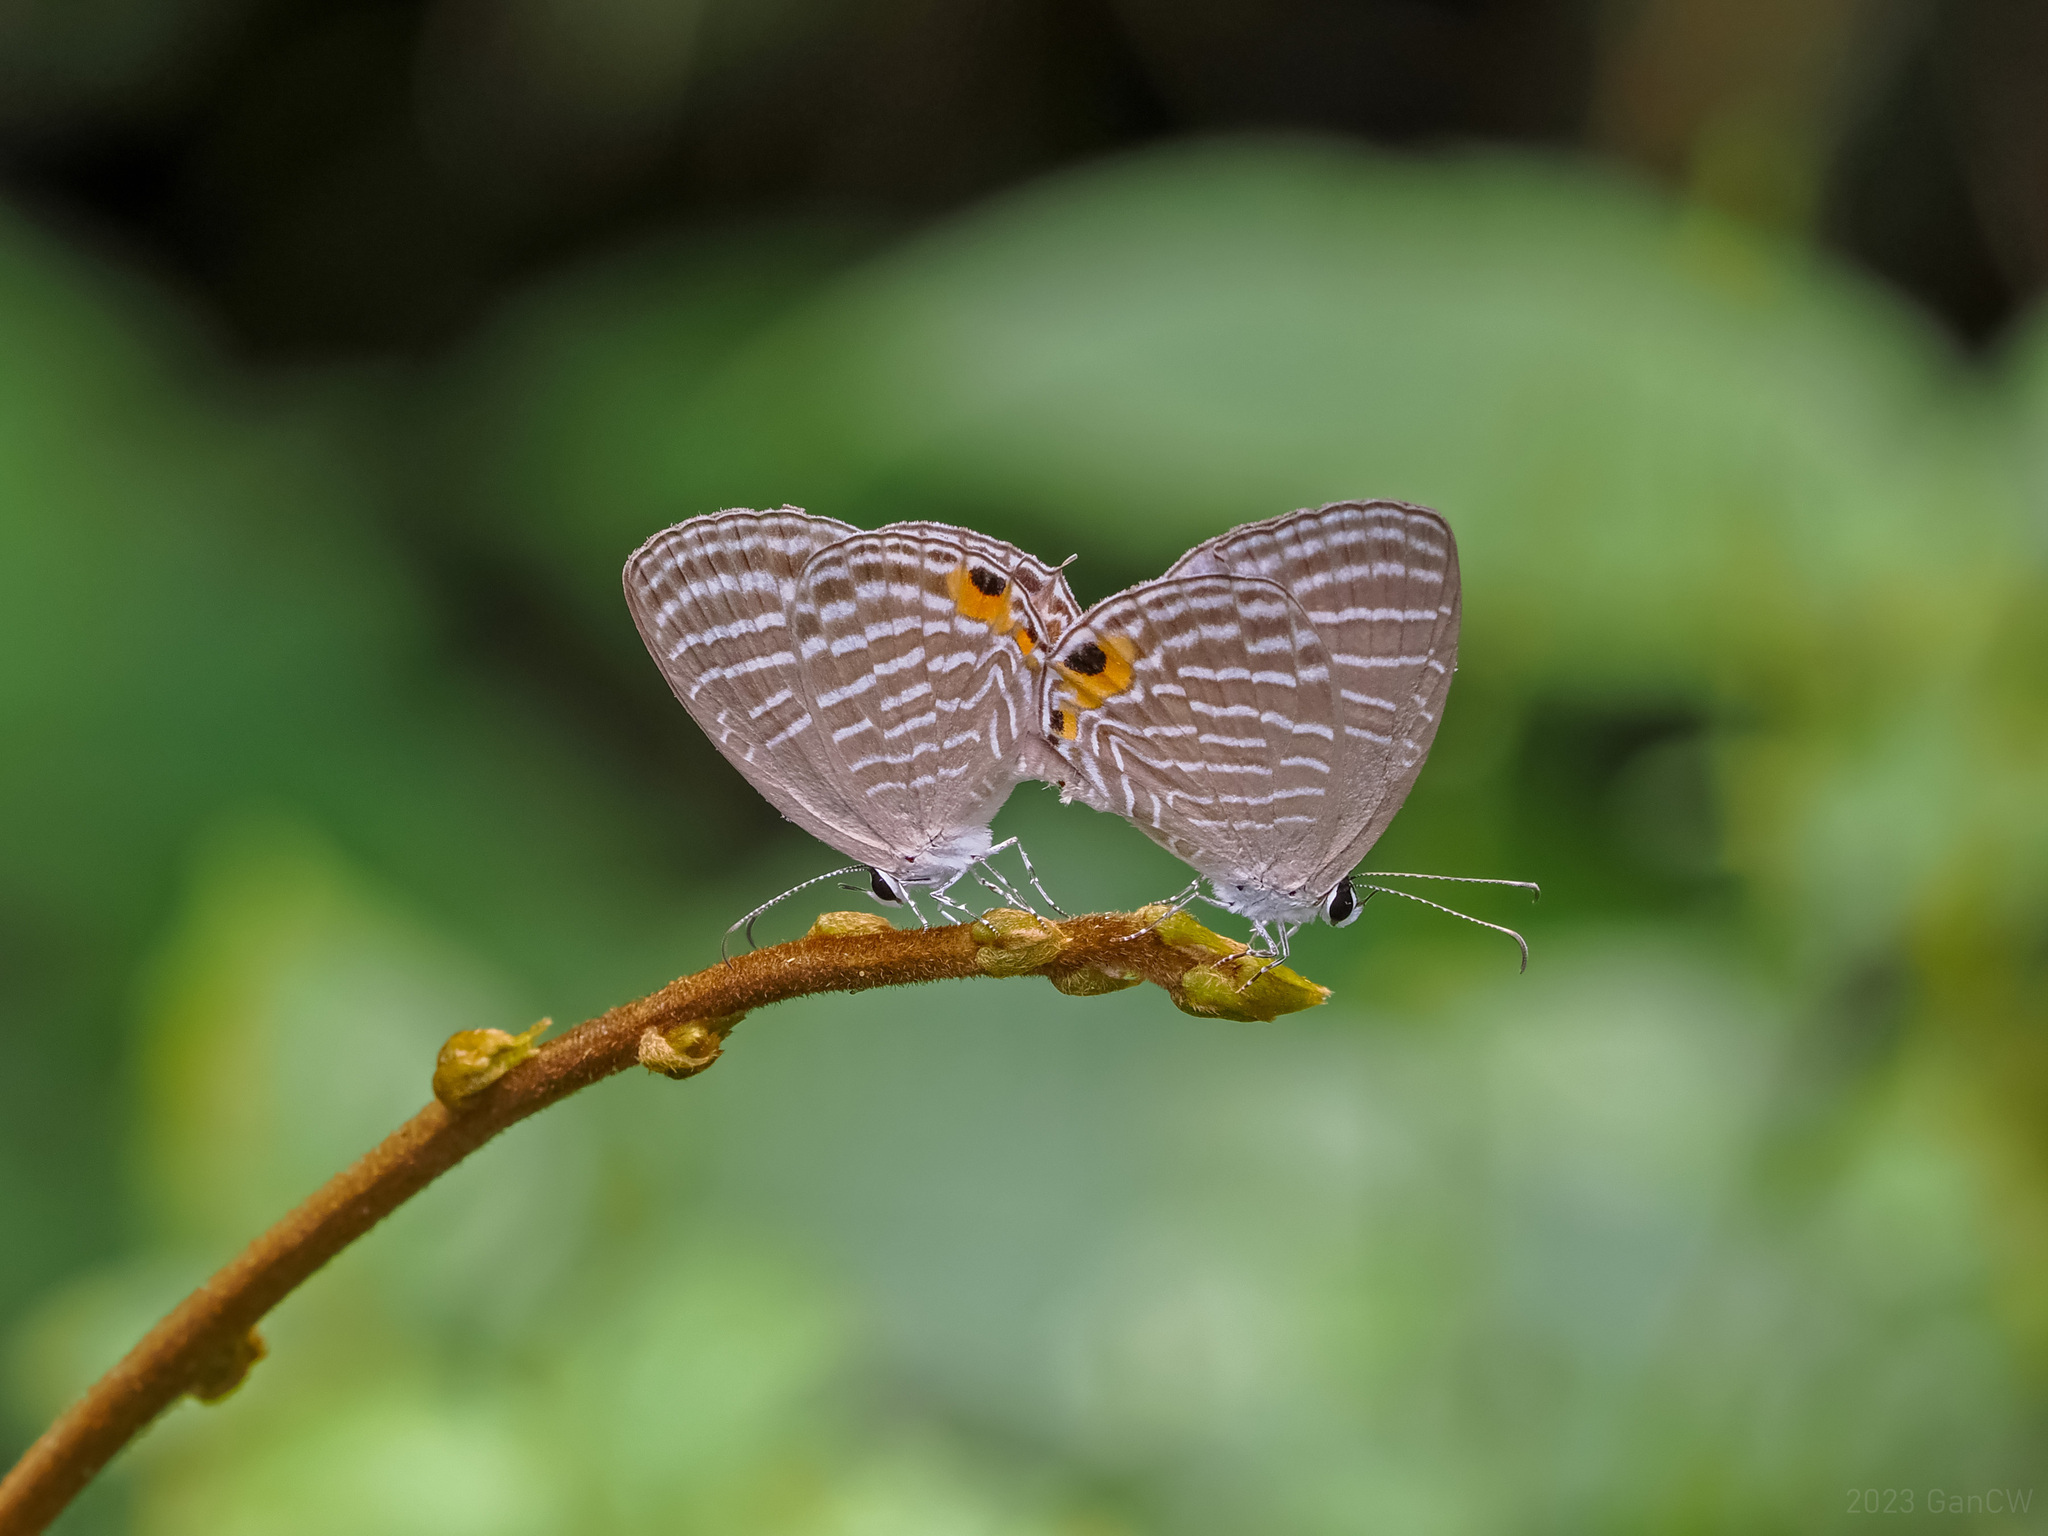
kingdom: Animalia
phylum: Arthropoda
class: Insecta
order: Lepidoptera
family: Lycaenidae
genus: Jamides
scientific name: Jamides celeno
